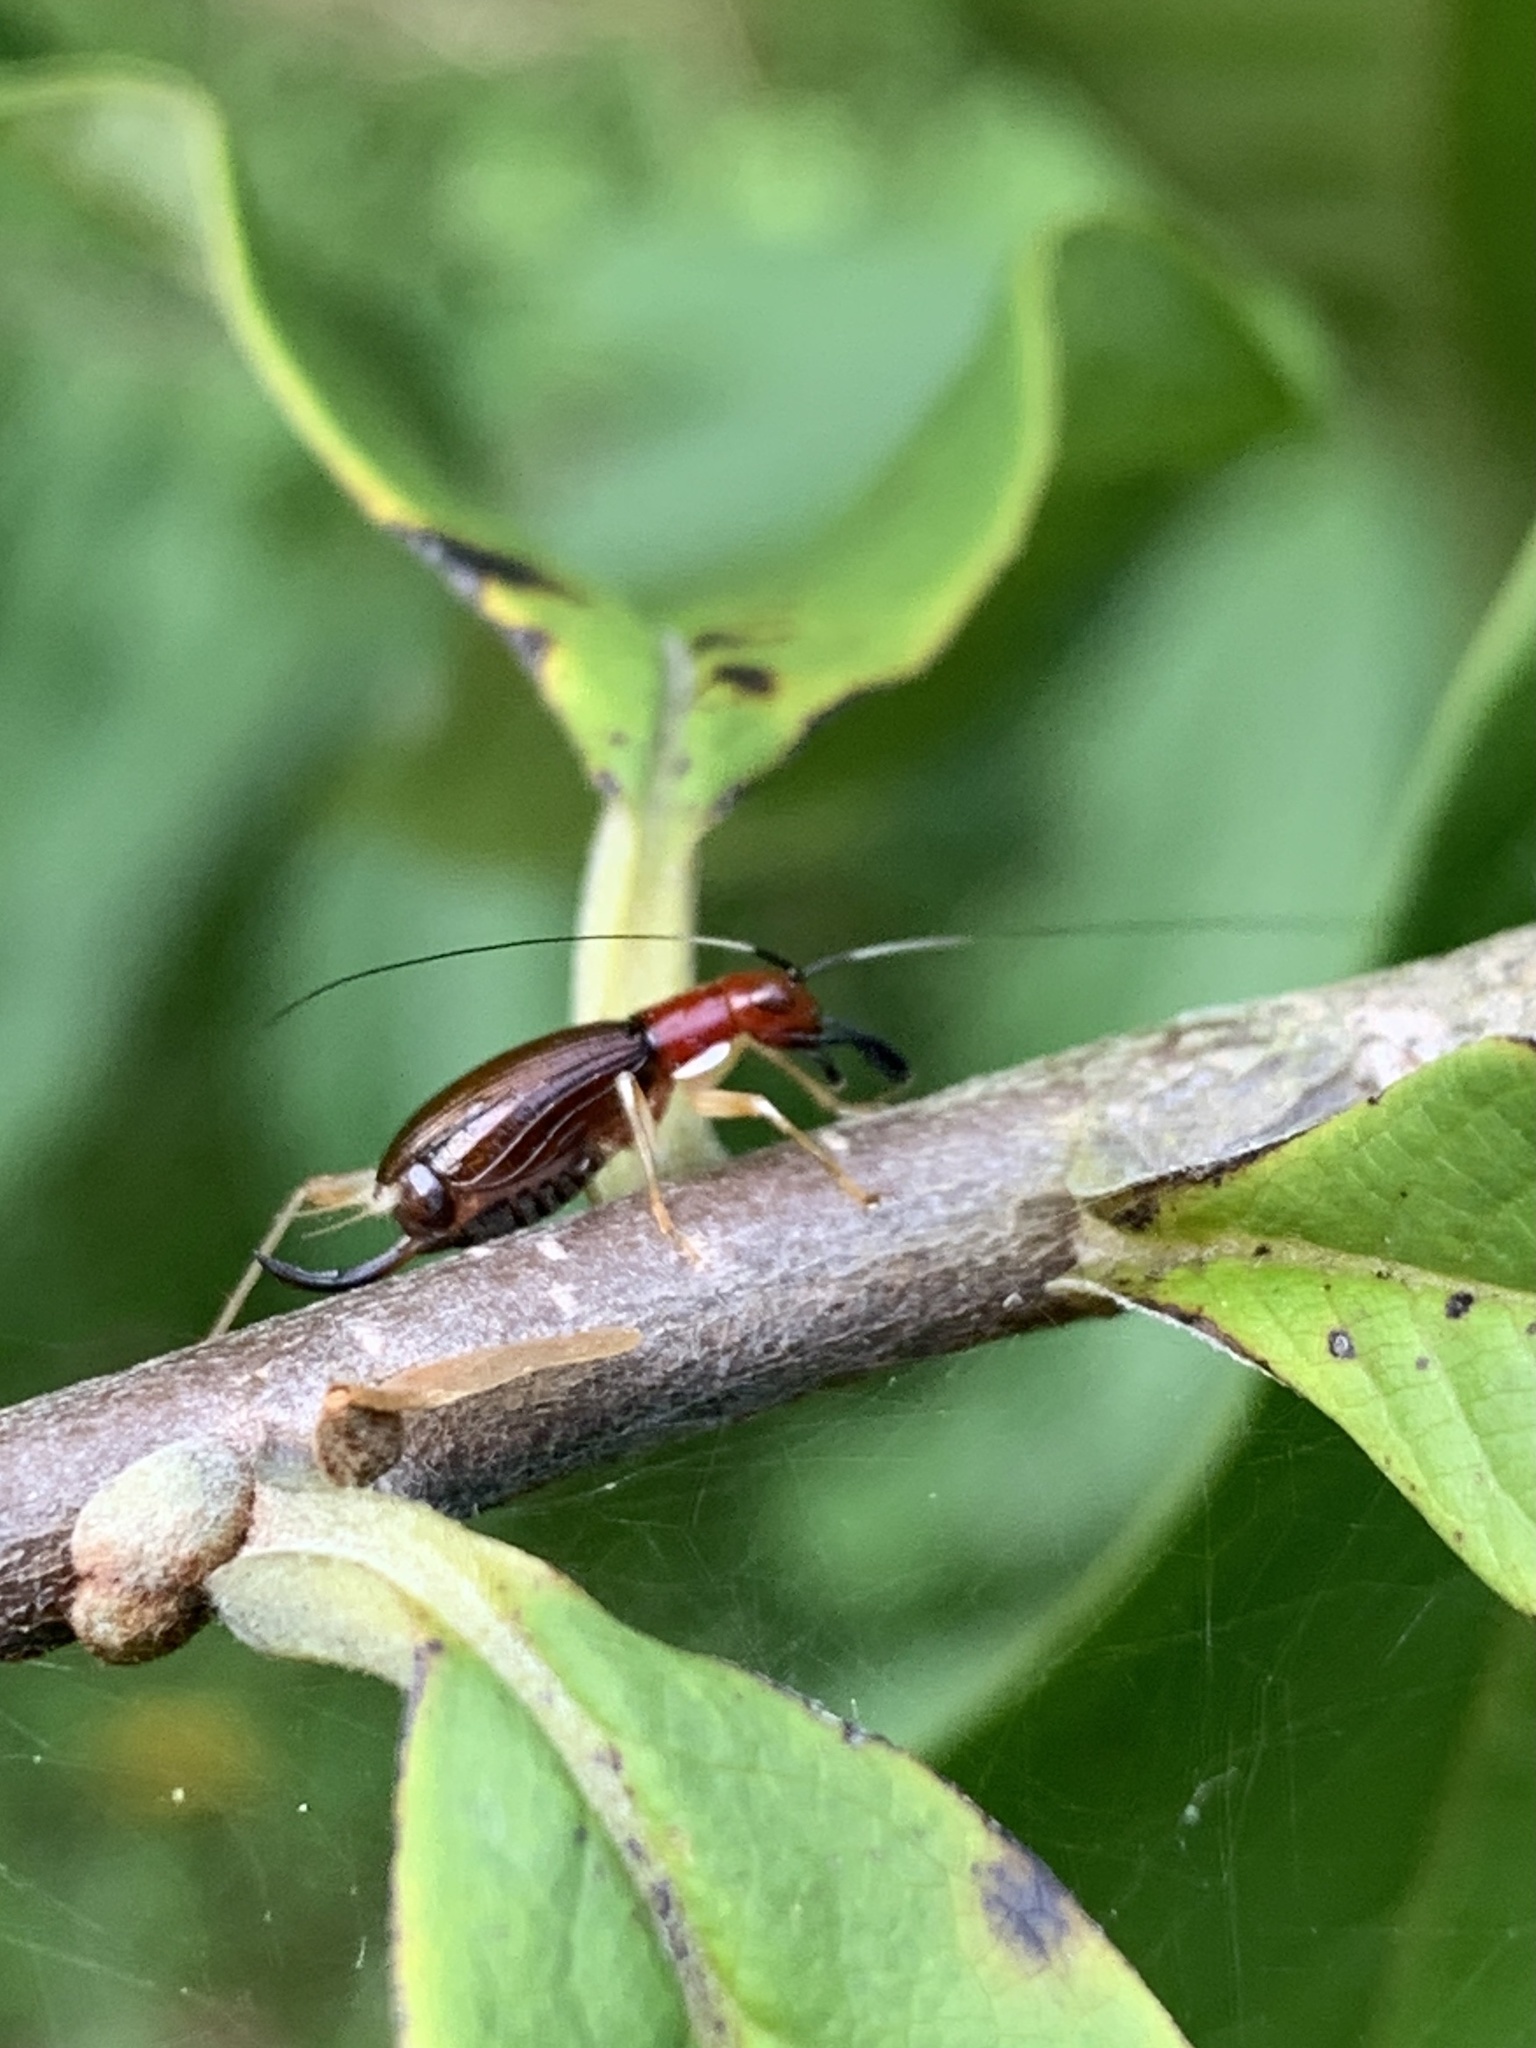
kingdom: Animalia
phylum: Arthropoda
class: Insecta
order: Orthoptera
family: Trigonidiidae
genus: Phyllopalpus
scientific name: Phyllopalpus pulchellus
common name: Handsome trig
